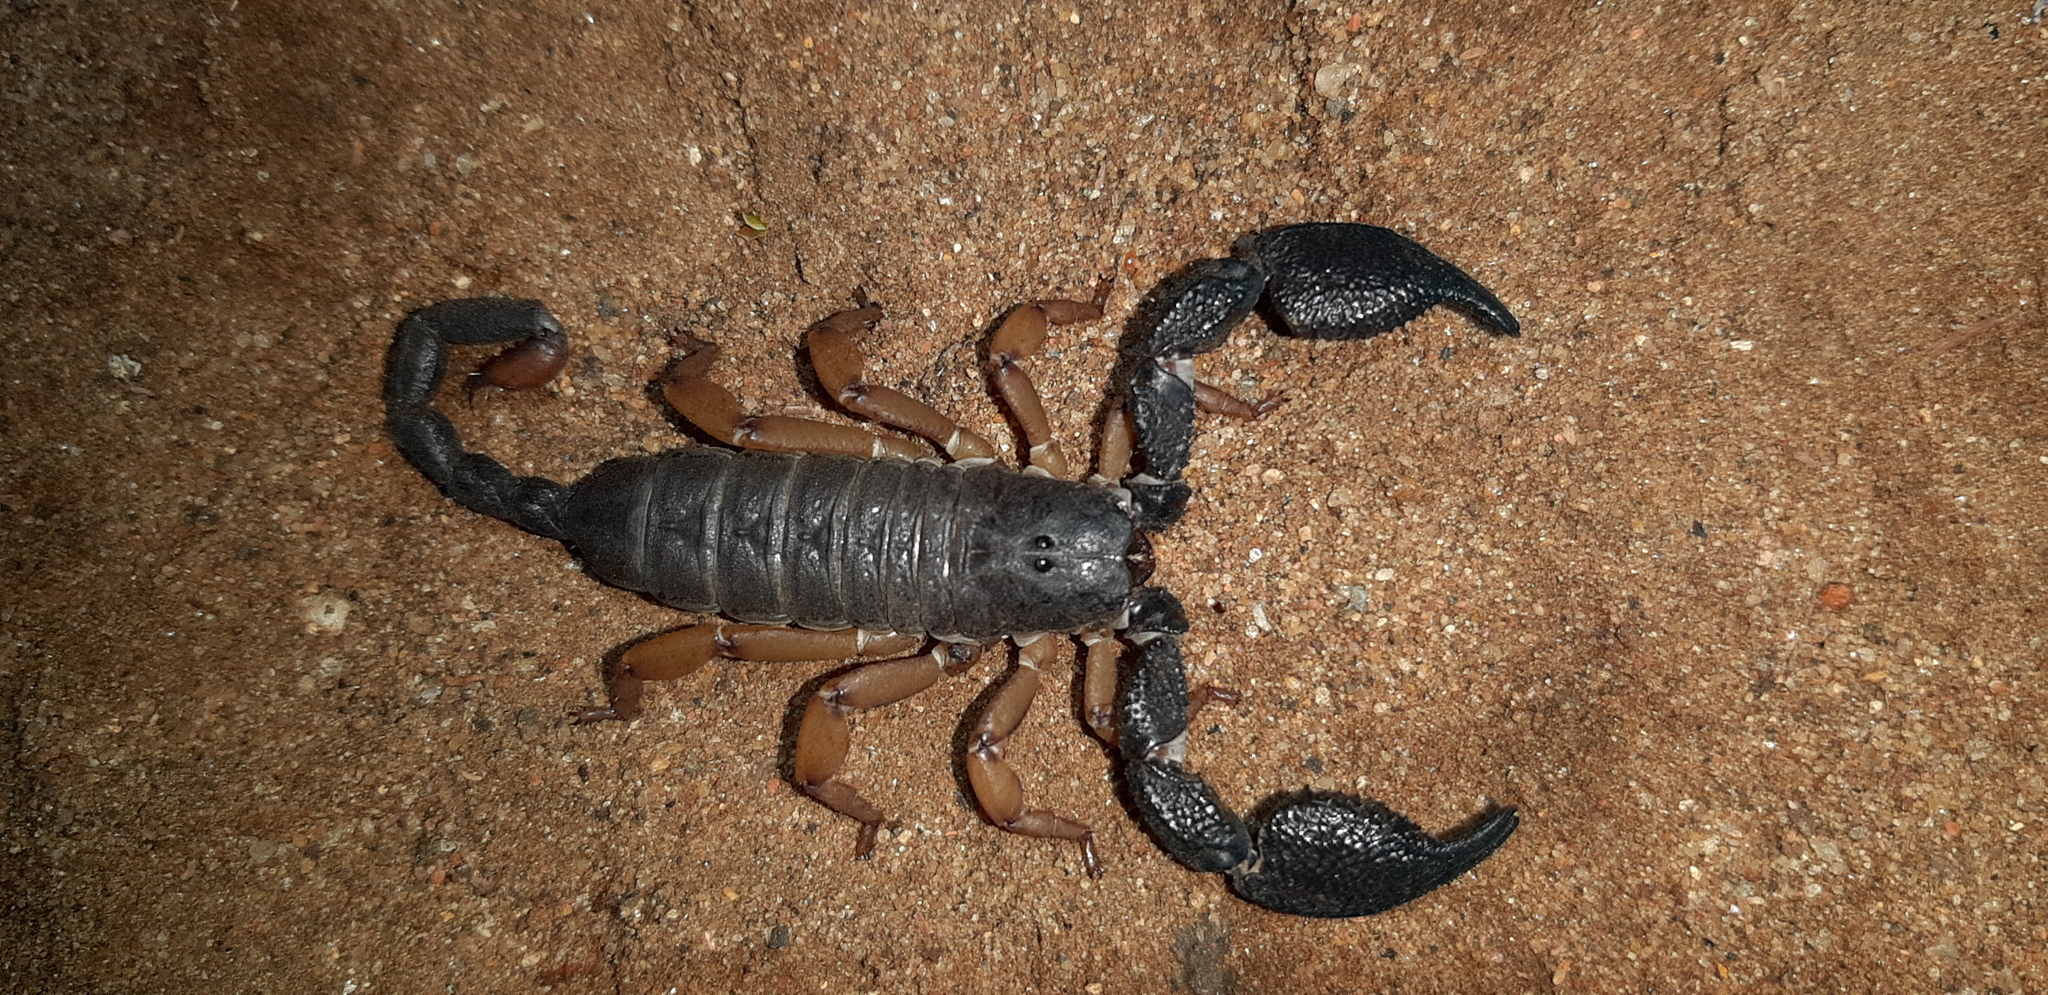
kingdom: Animalia
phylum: Arthropoda
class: Arachnida
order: Scorpiones
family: Hormuridae
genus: Opisthacanthus
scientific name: Opisthacanthus asper
